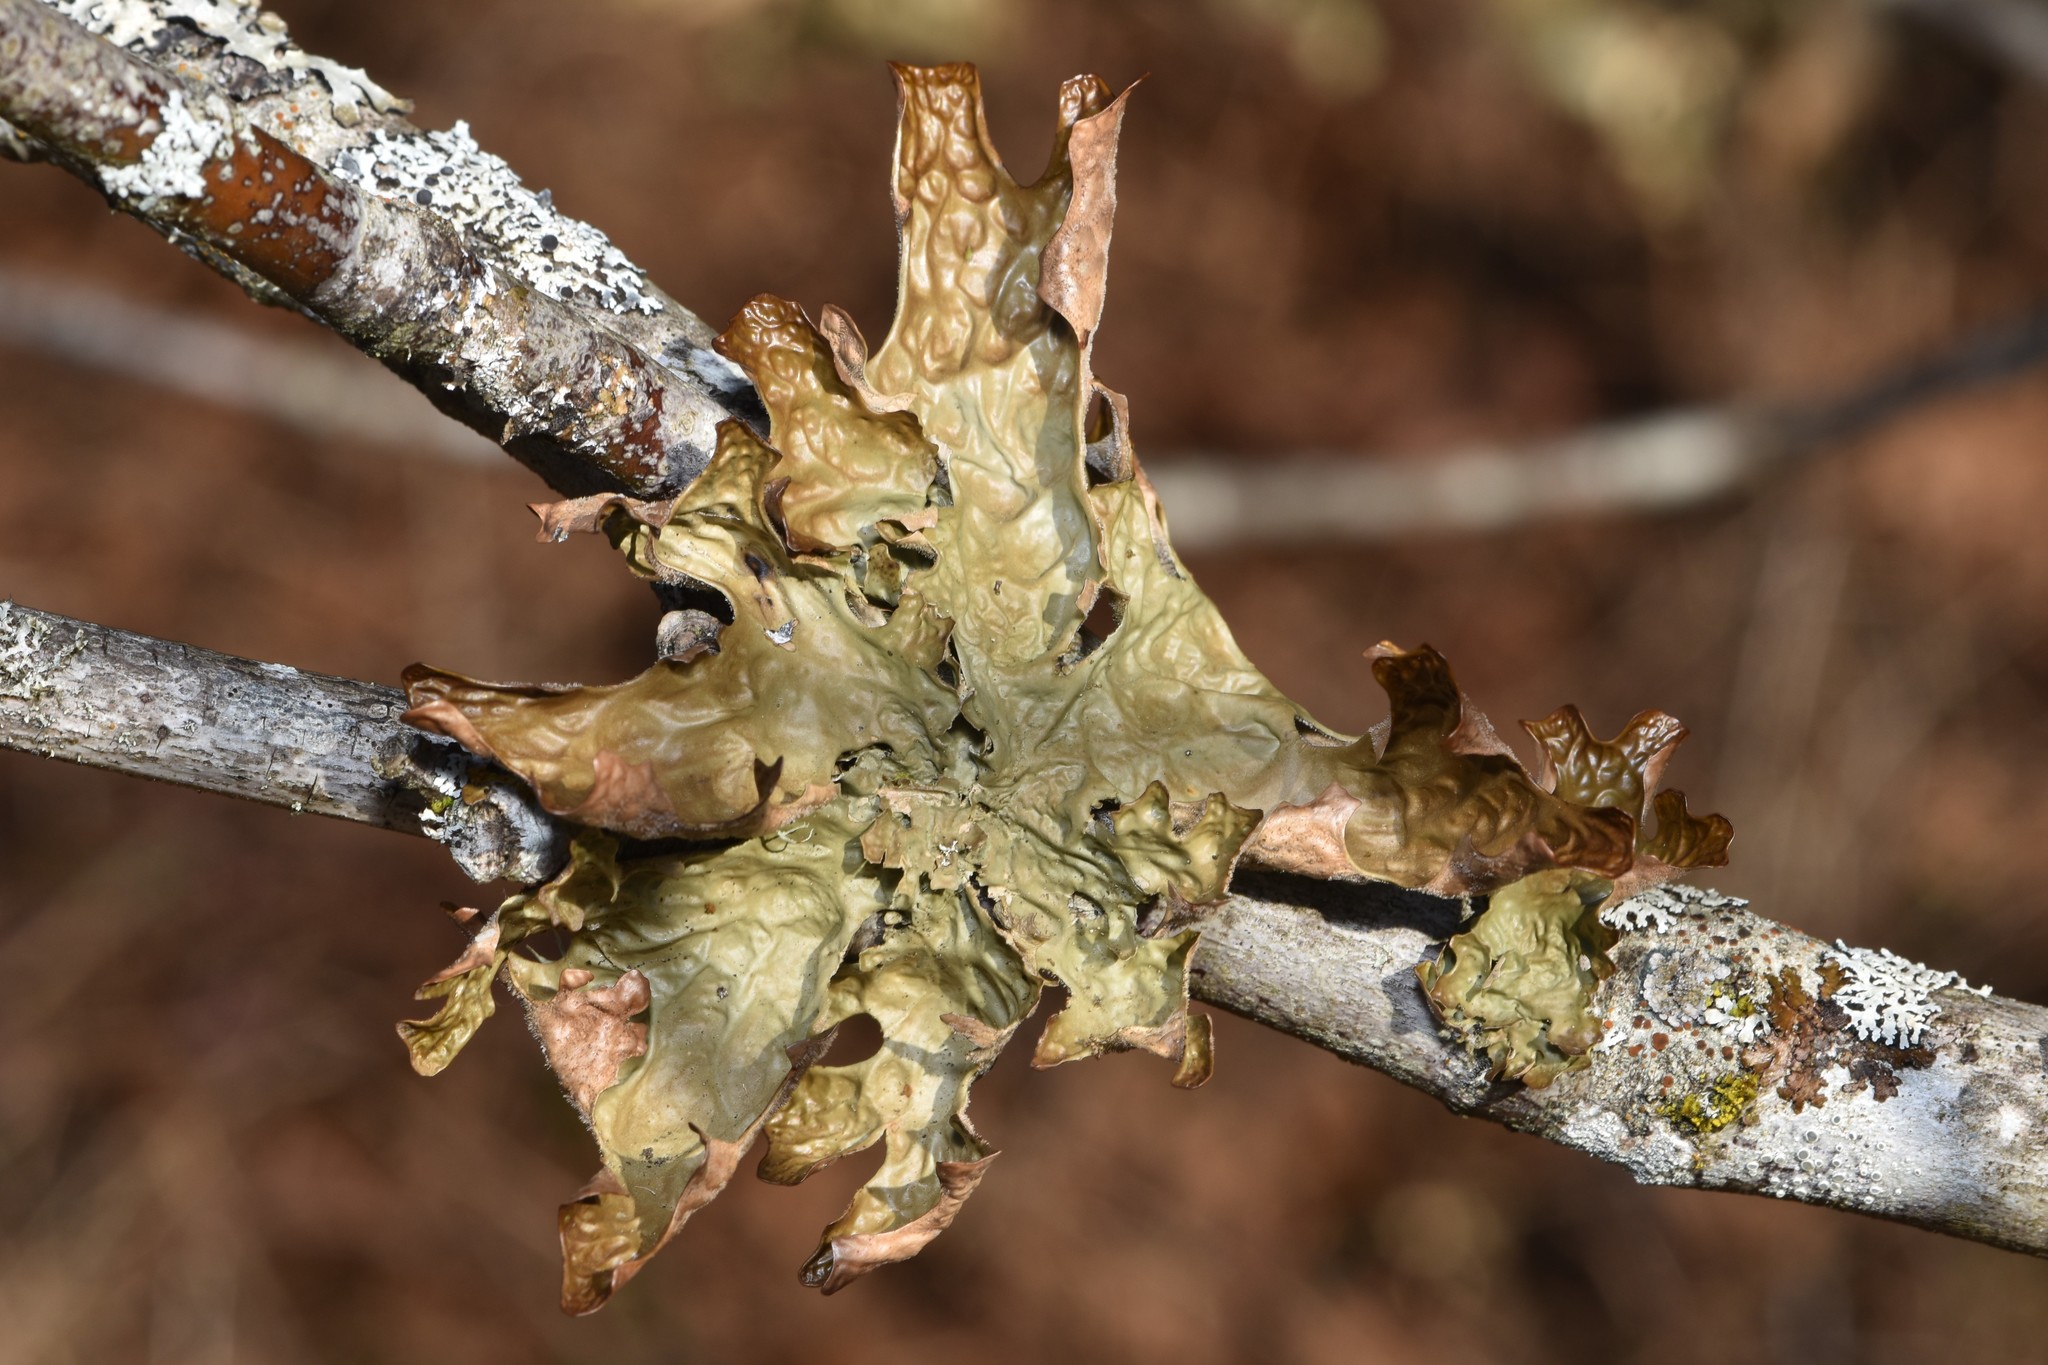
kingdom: Fungi
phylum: Ascomycota
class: Lecanoromycetes
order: Peltigerales
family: Lobariaceae
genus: Lobaria
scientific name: Lobaria pulmonaria
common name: Lungwort
